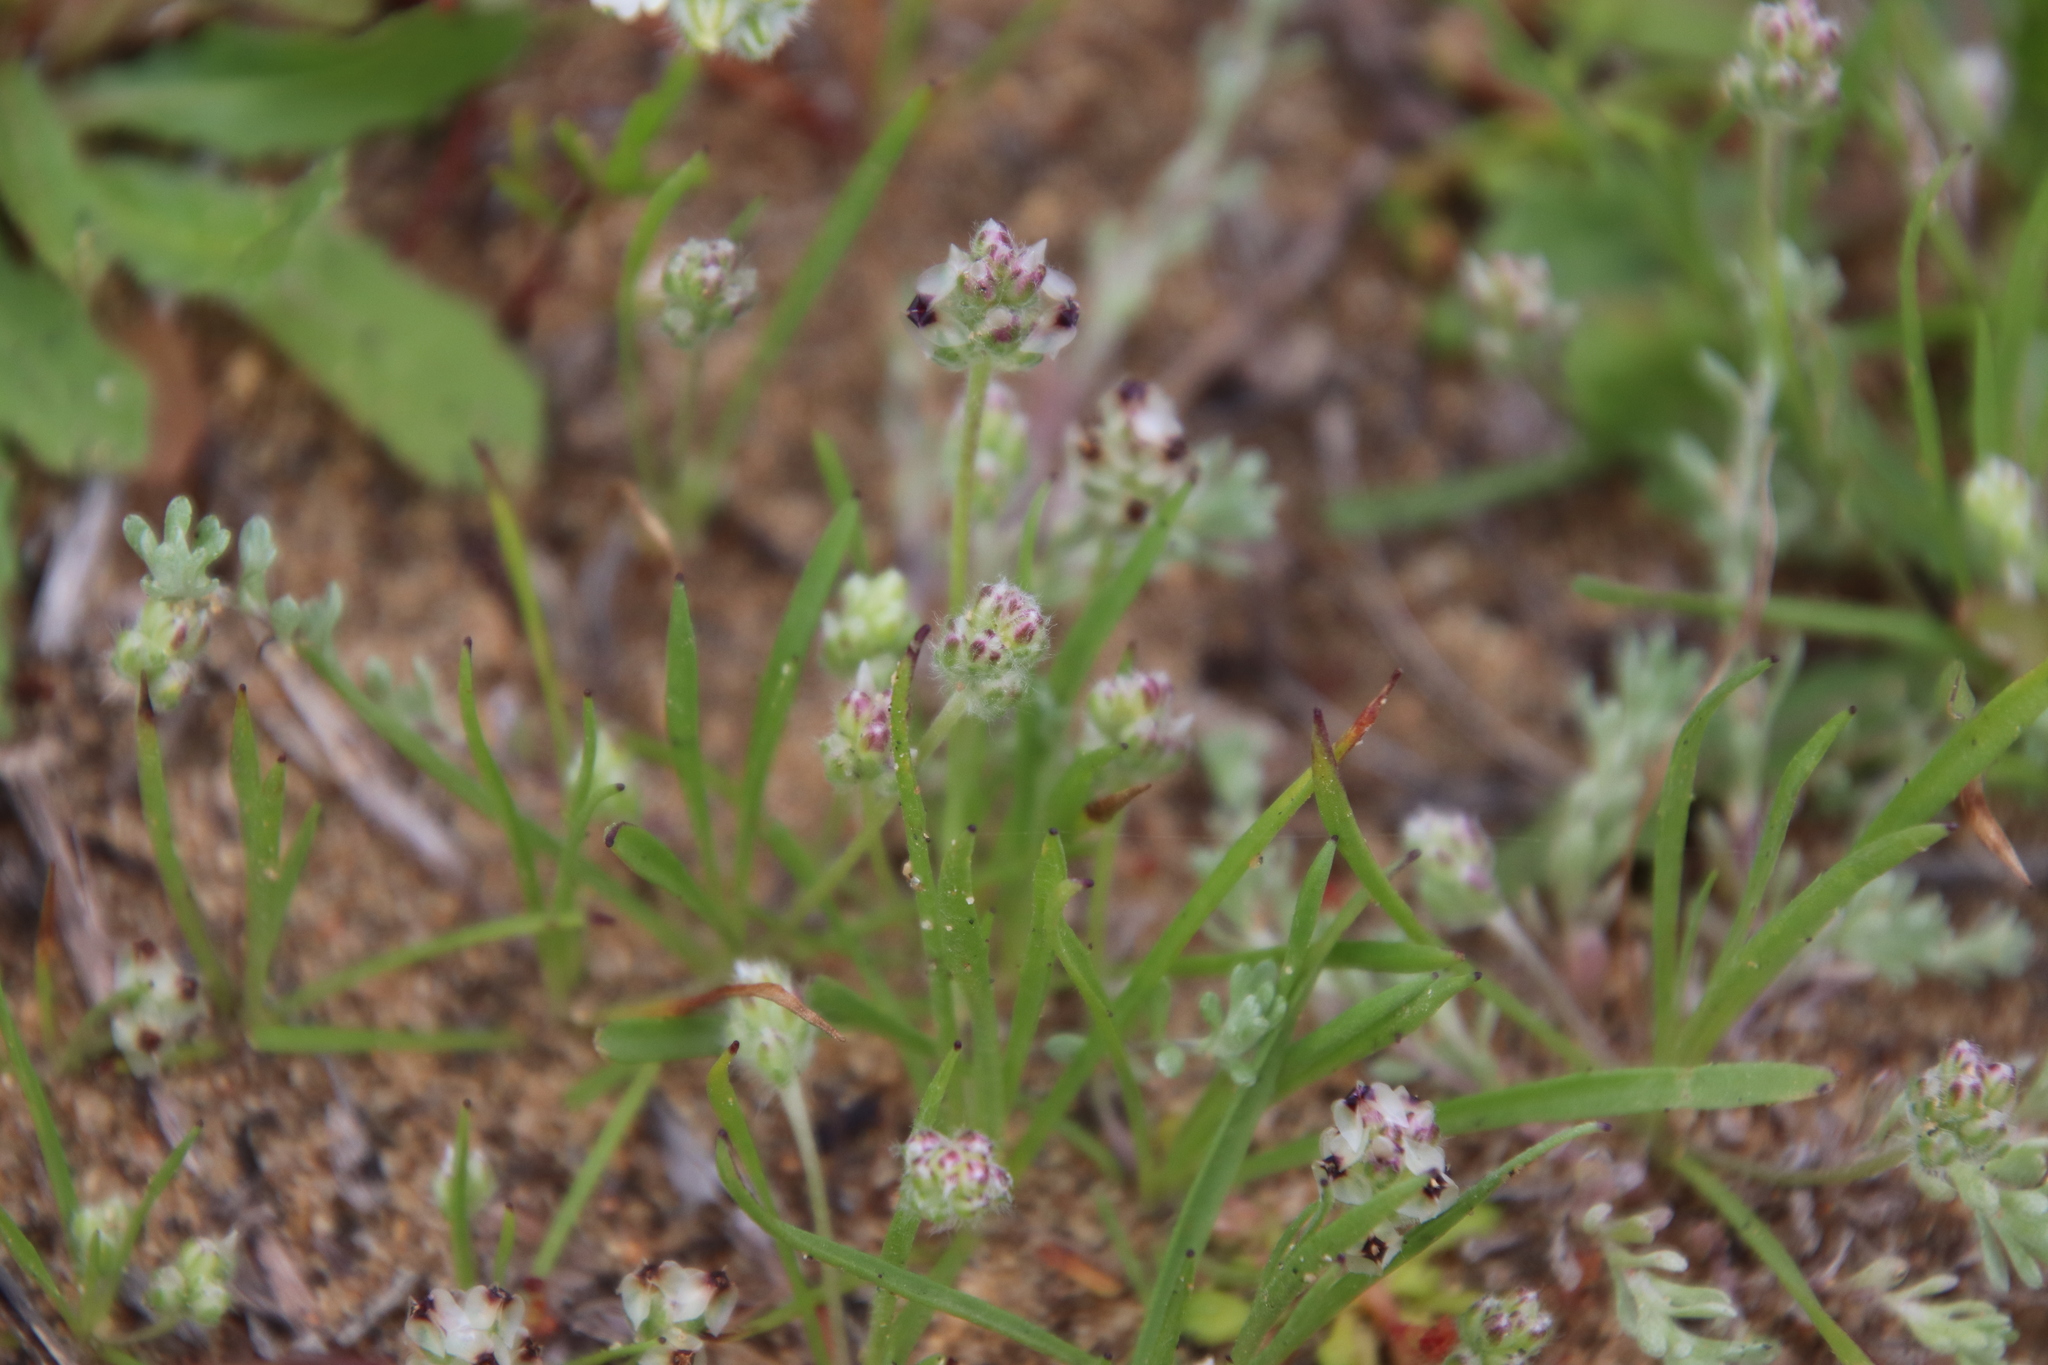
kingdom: Plantae
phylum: Tracheophyta
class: Magnoliopsida
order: Lamiales
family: Plantaginaceae
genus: Plantago
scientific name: Plantago erecta
